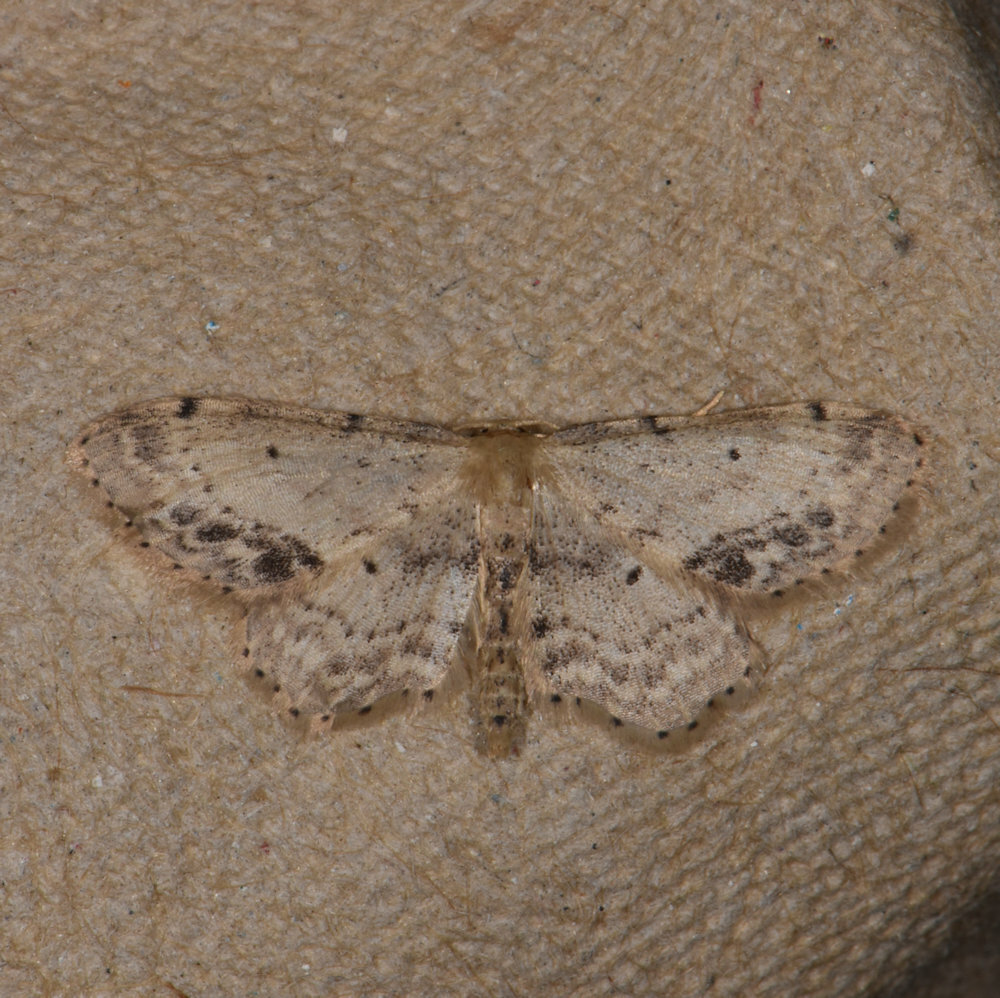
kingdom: Animalia
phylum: Arthropoda
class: Insecta
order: Lepidoptera
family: Geometridae
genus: Idaea
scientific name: Idaea dimidiata
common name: Single-dotted wave
